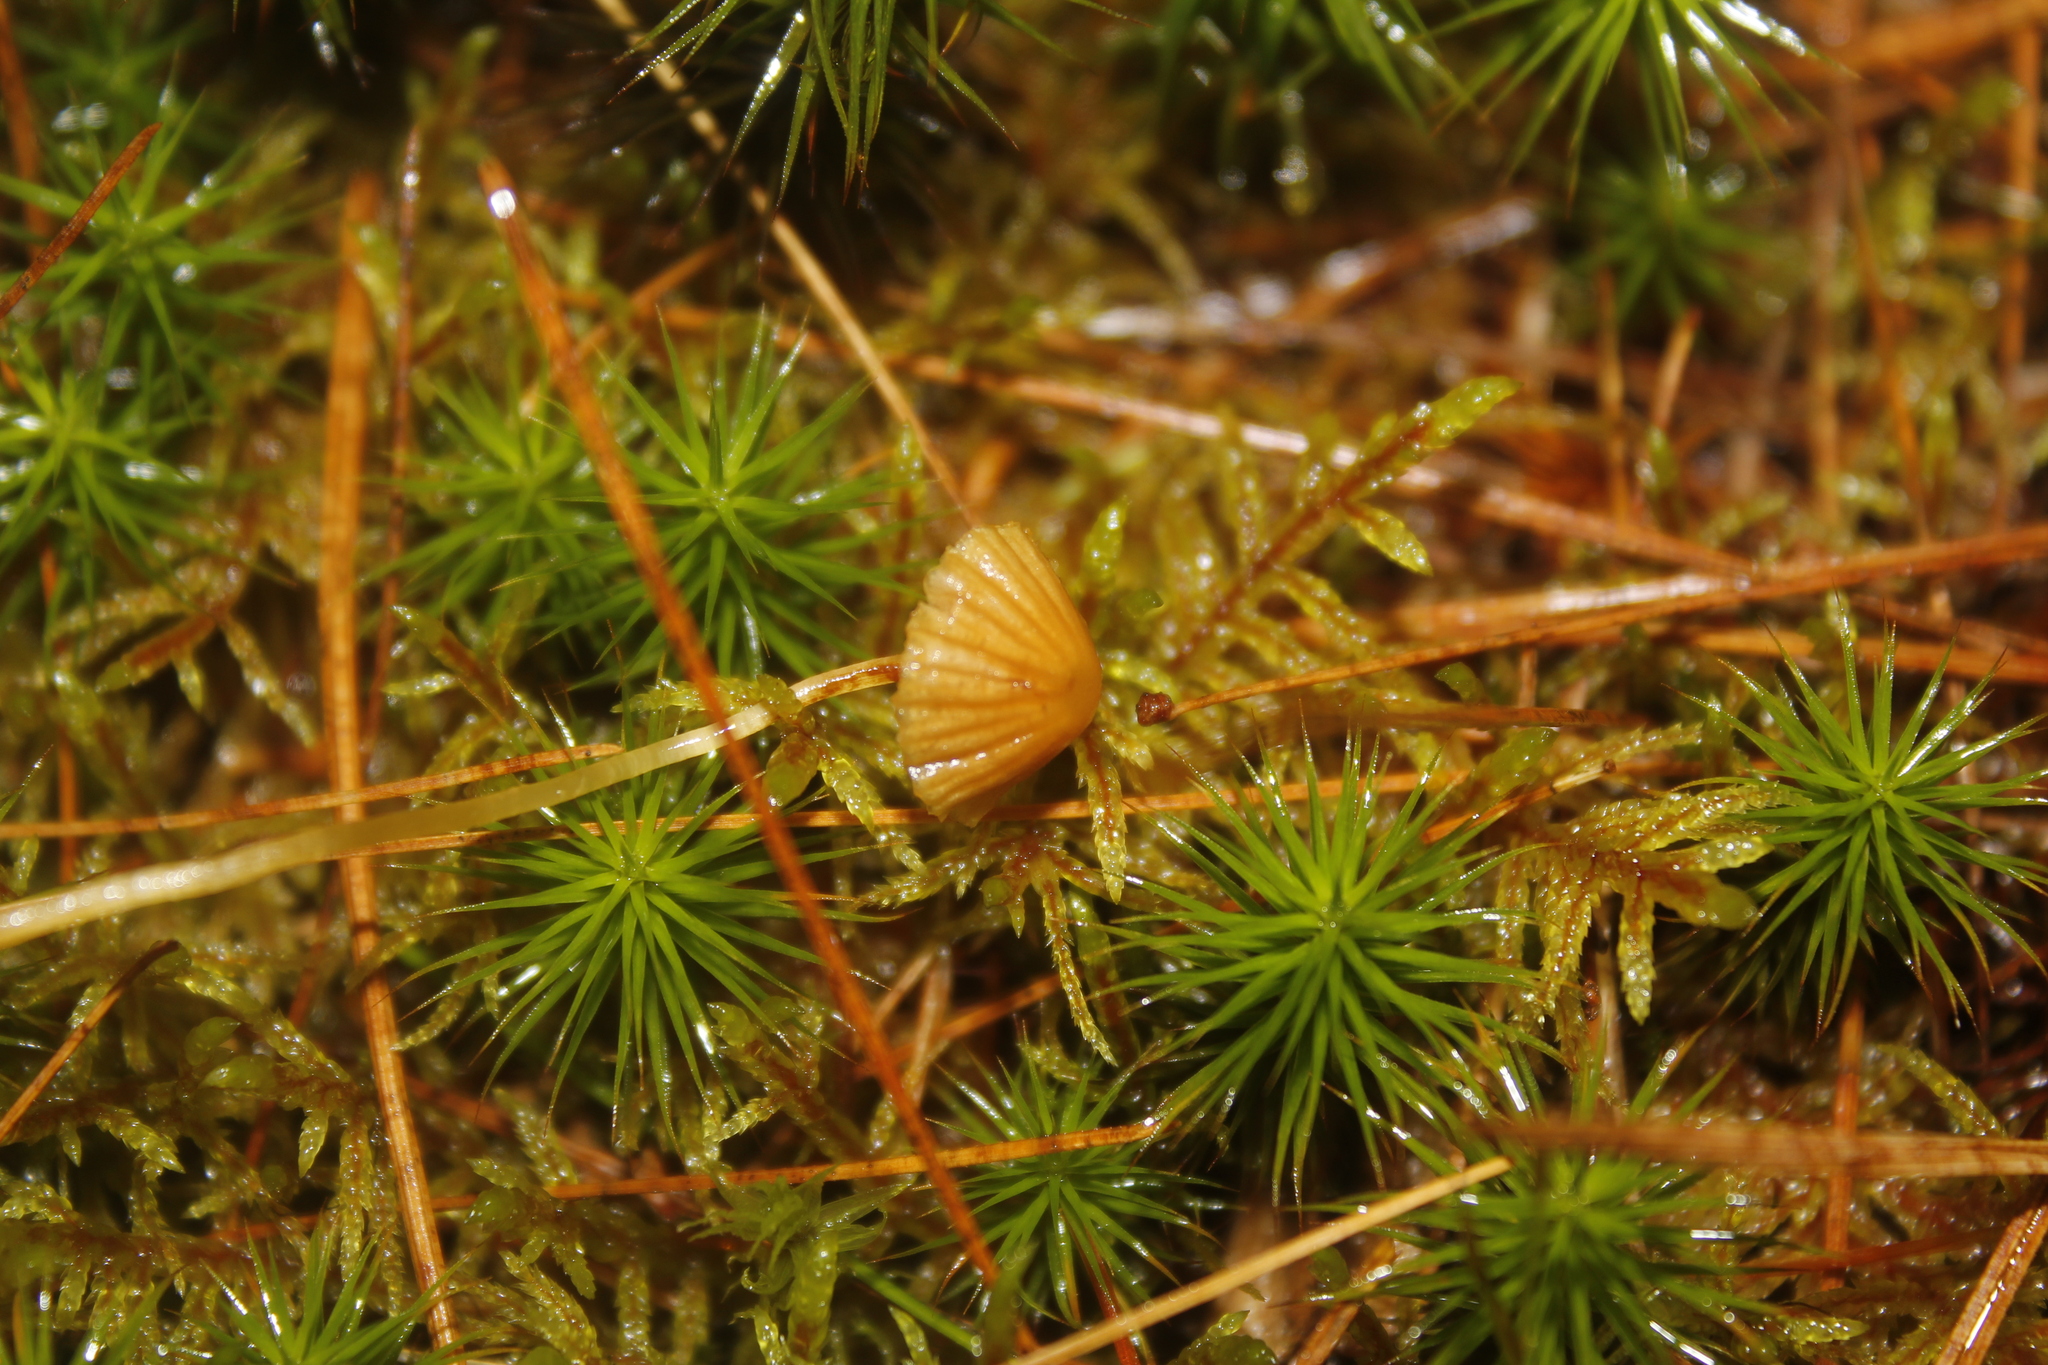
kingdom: Fungi
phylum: Basidiomycota
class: Agaricomycetes
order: Agaricales
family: Hymenogastraceae
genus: Galerina
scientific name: Galerina
